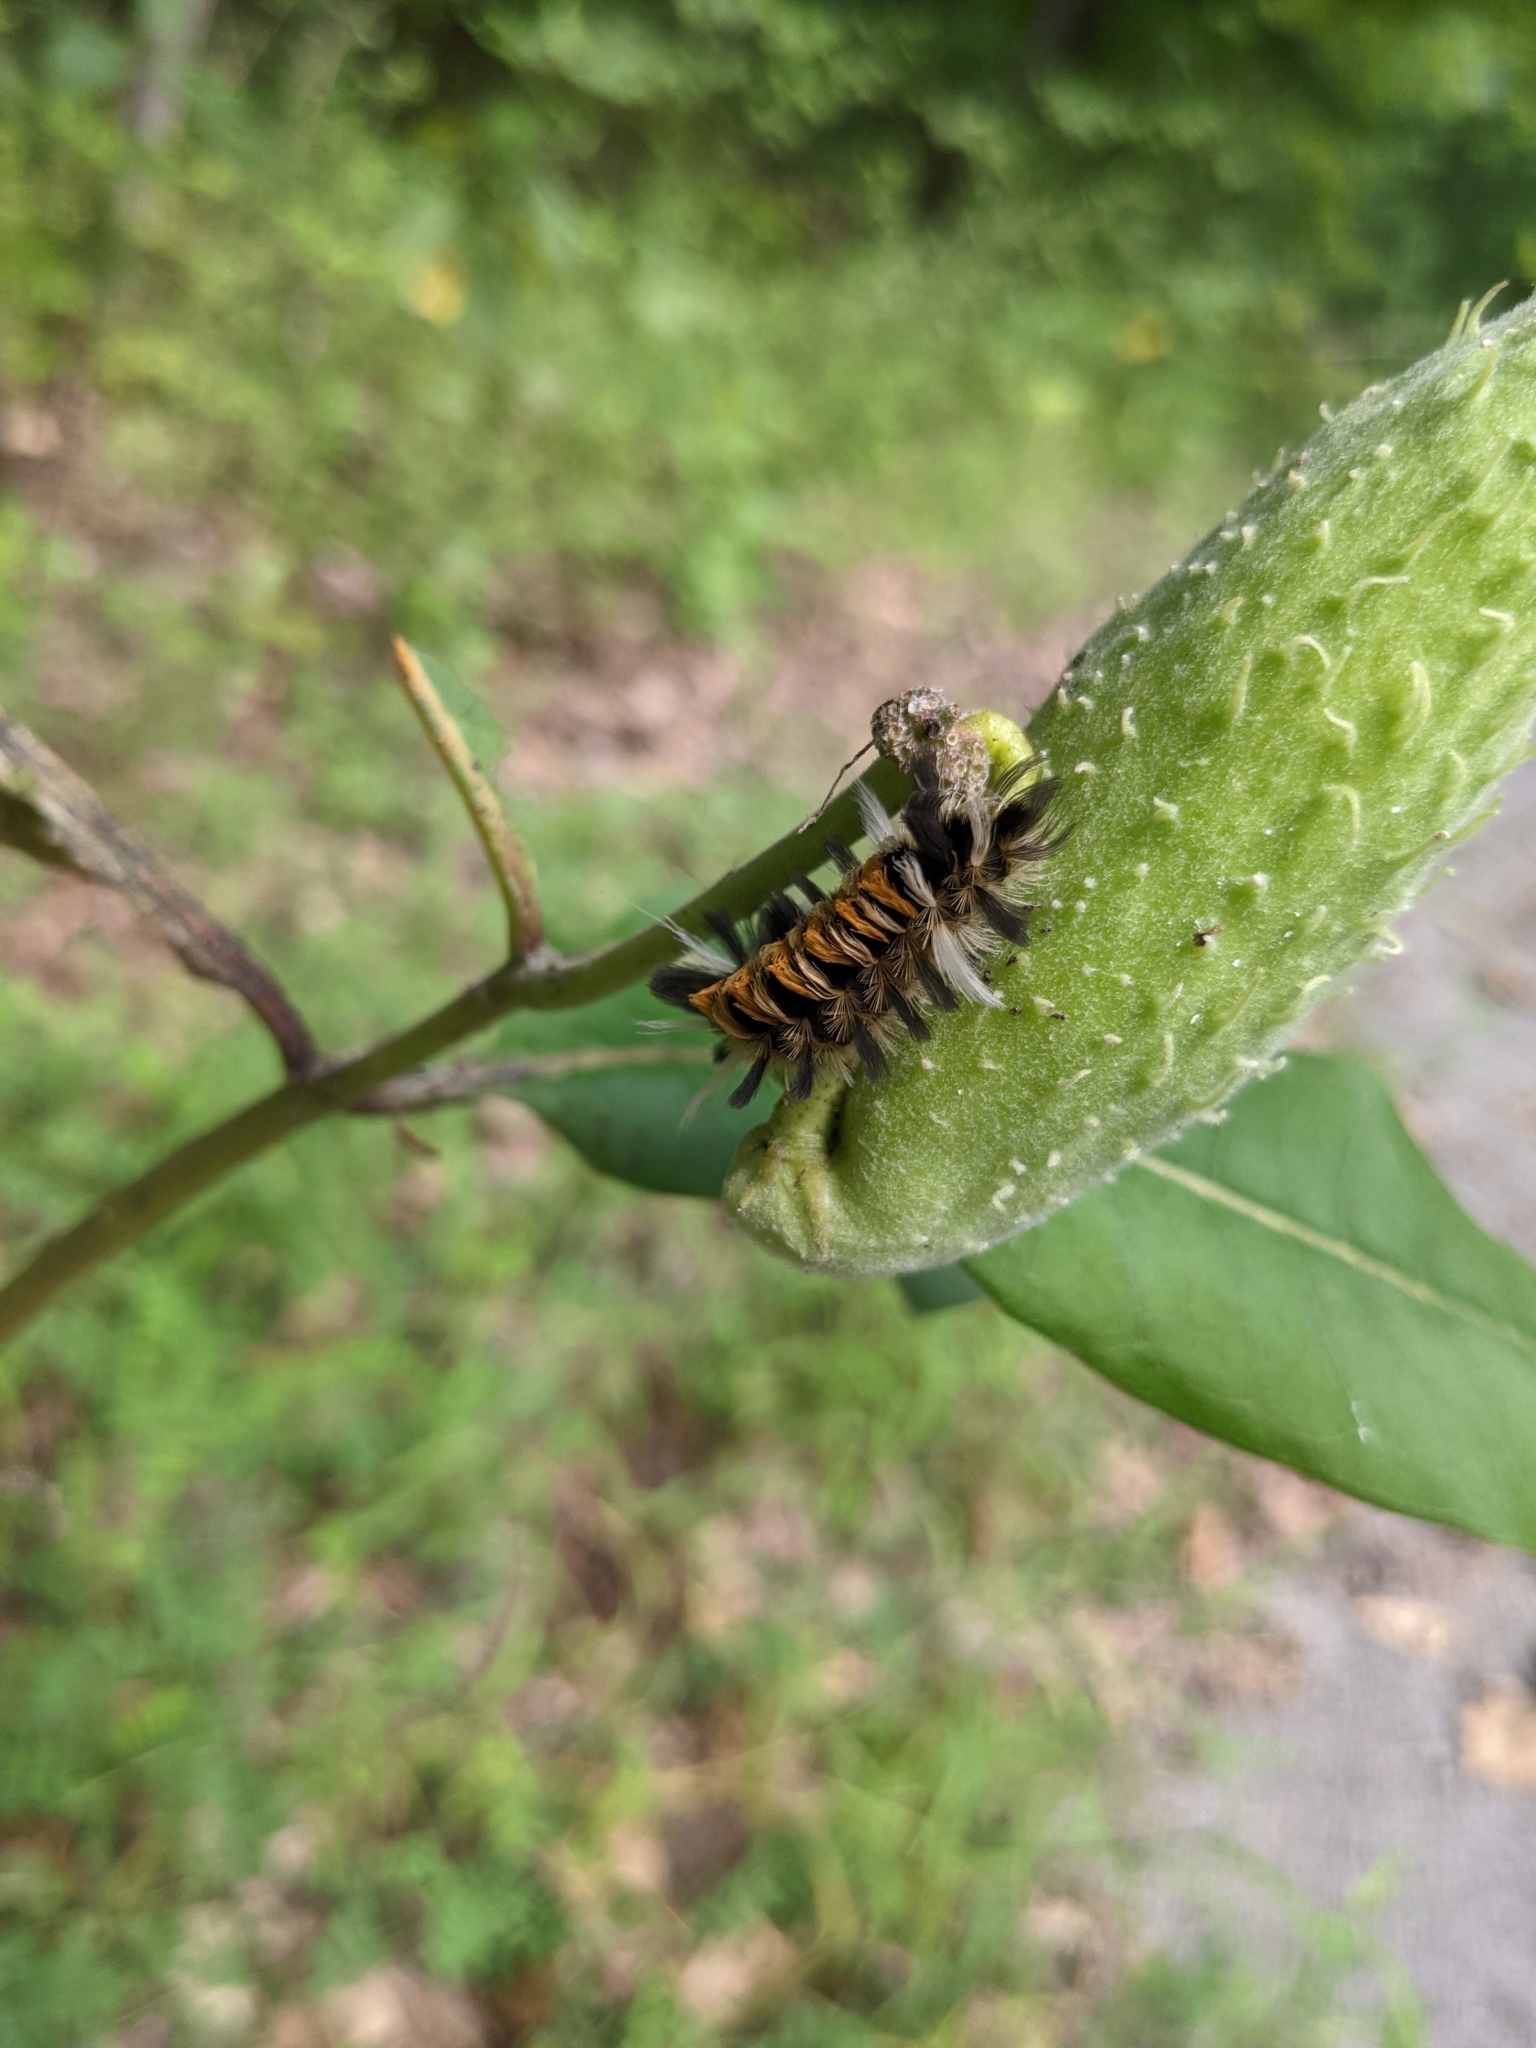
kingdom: Animalia
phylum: Arthropoda
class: Insecta
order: Lepidoptera
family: Erebidae
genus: Euchaetes
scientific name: Euchaetes egle
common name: Milkweed tussock moth
